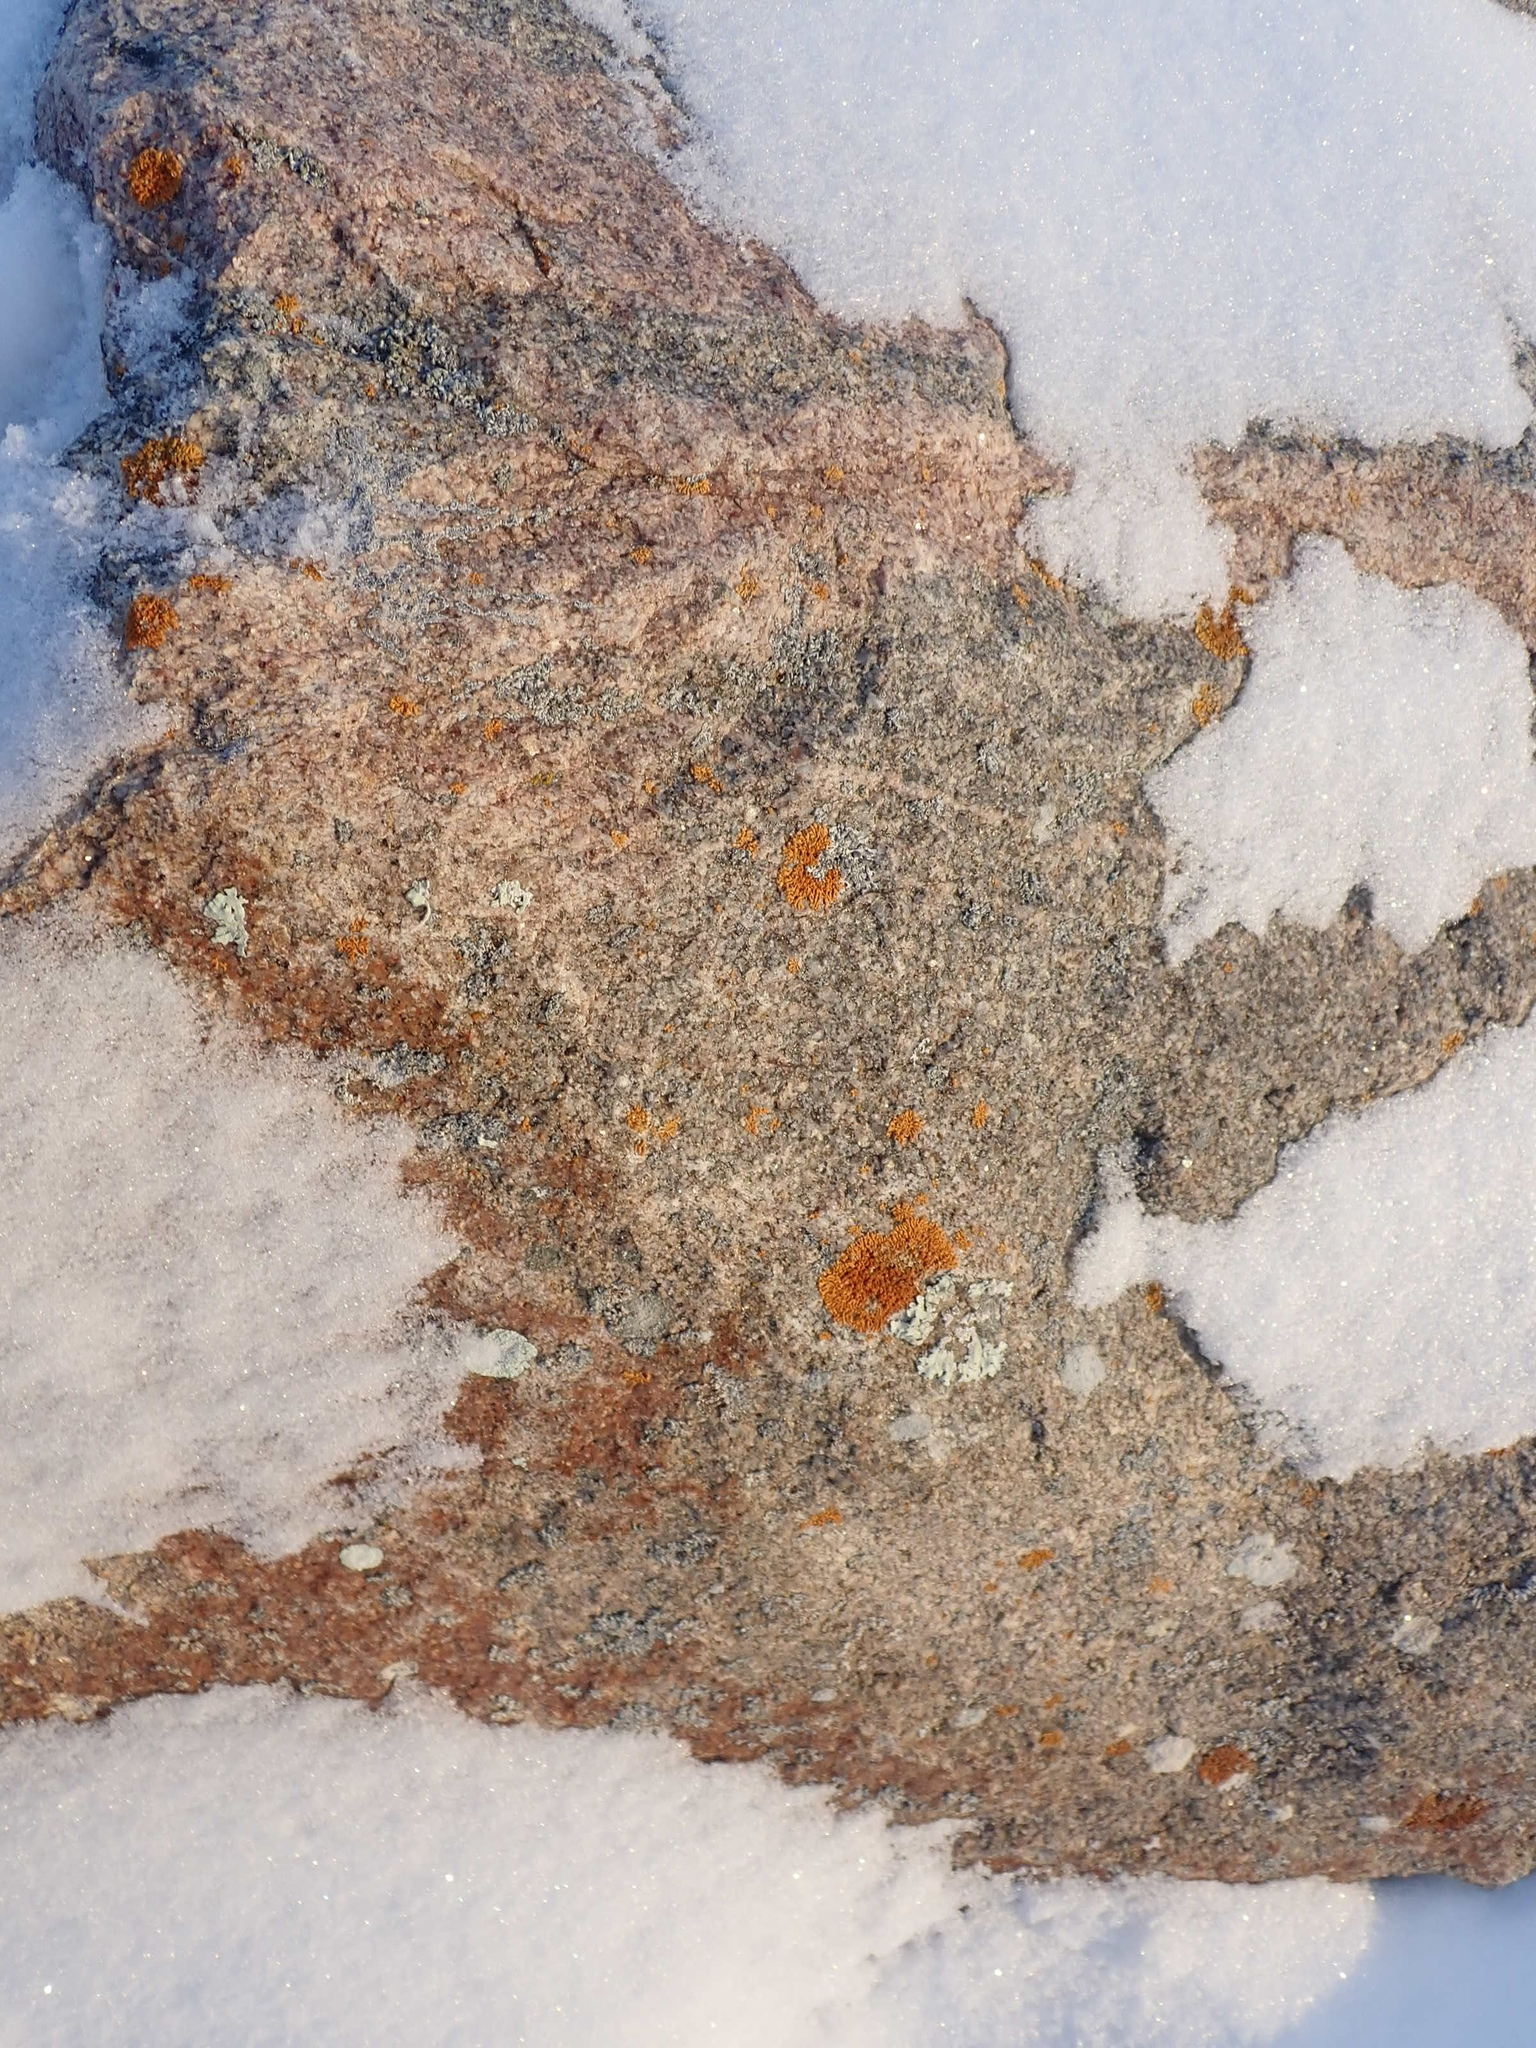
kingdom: Fungi
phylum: Ascomycota
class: Lecanoromycetes
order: Teloschistales
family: Teloschistaceae
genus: Xanthoria
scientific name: Xanthoria elegans
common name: Elegant sunburst lichen
